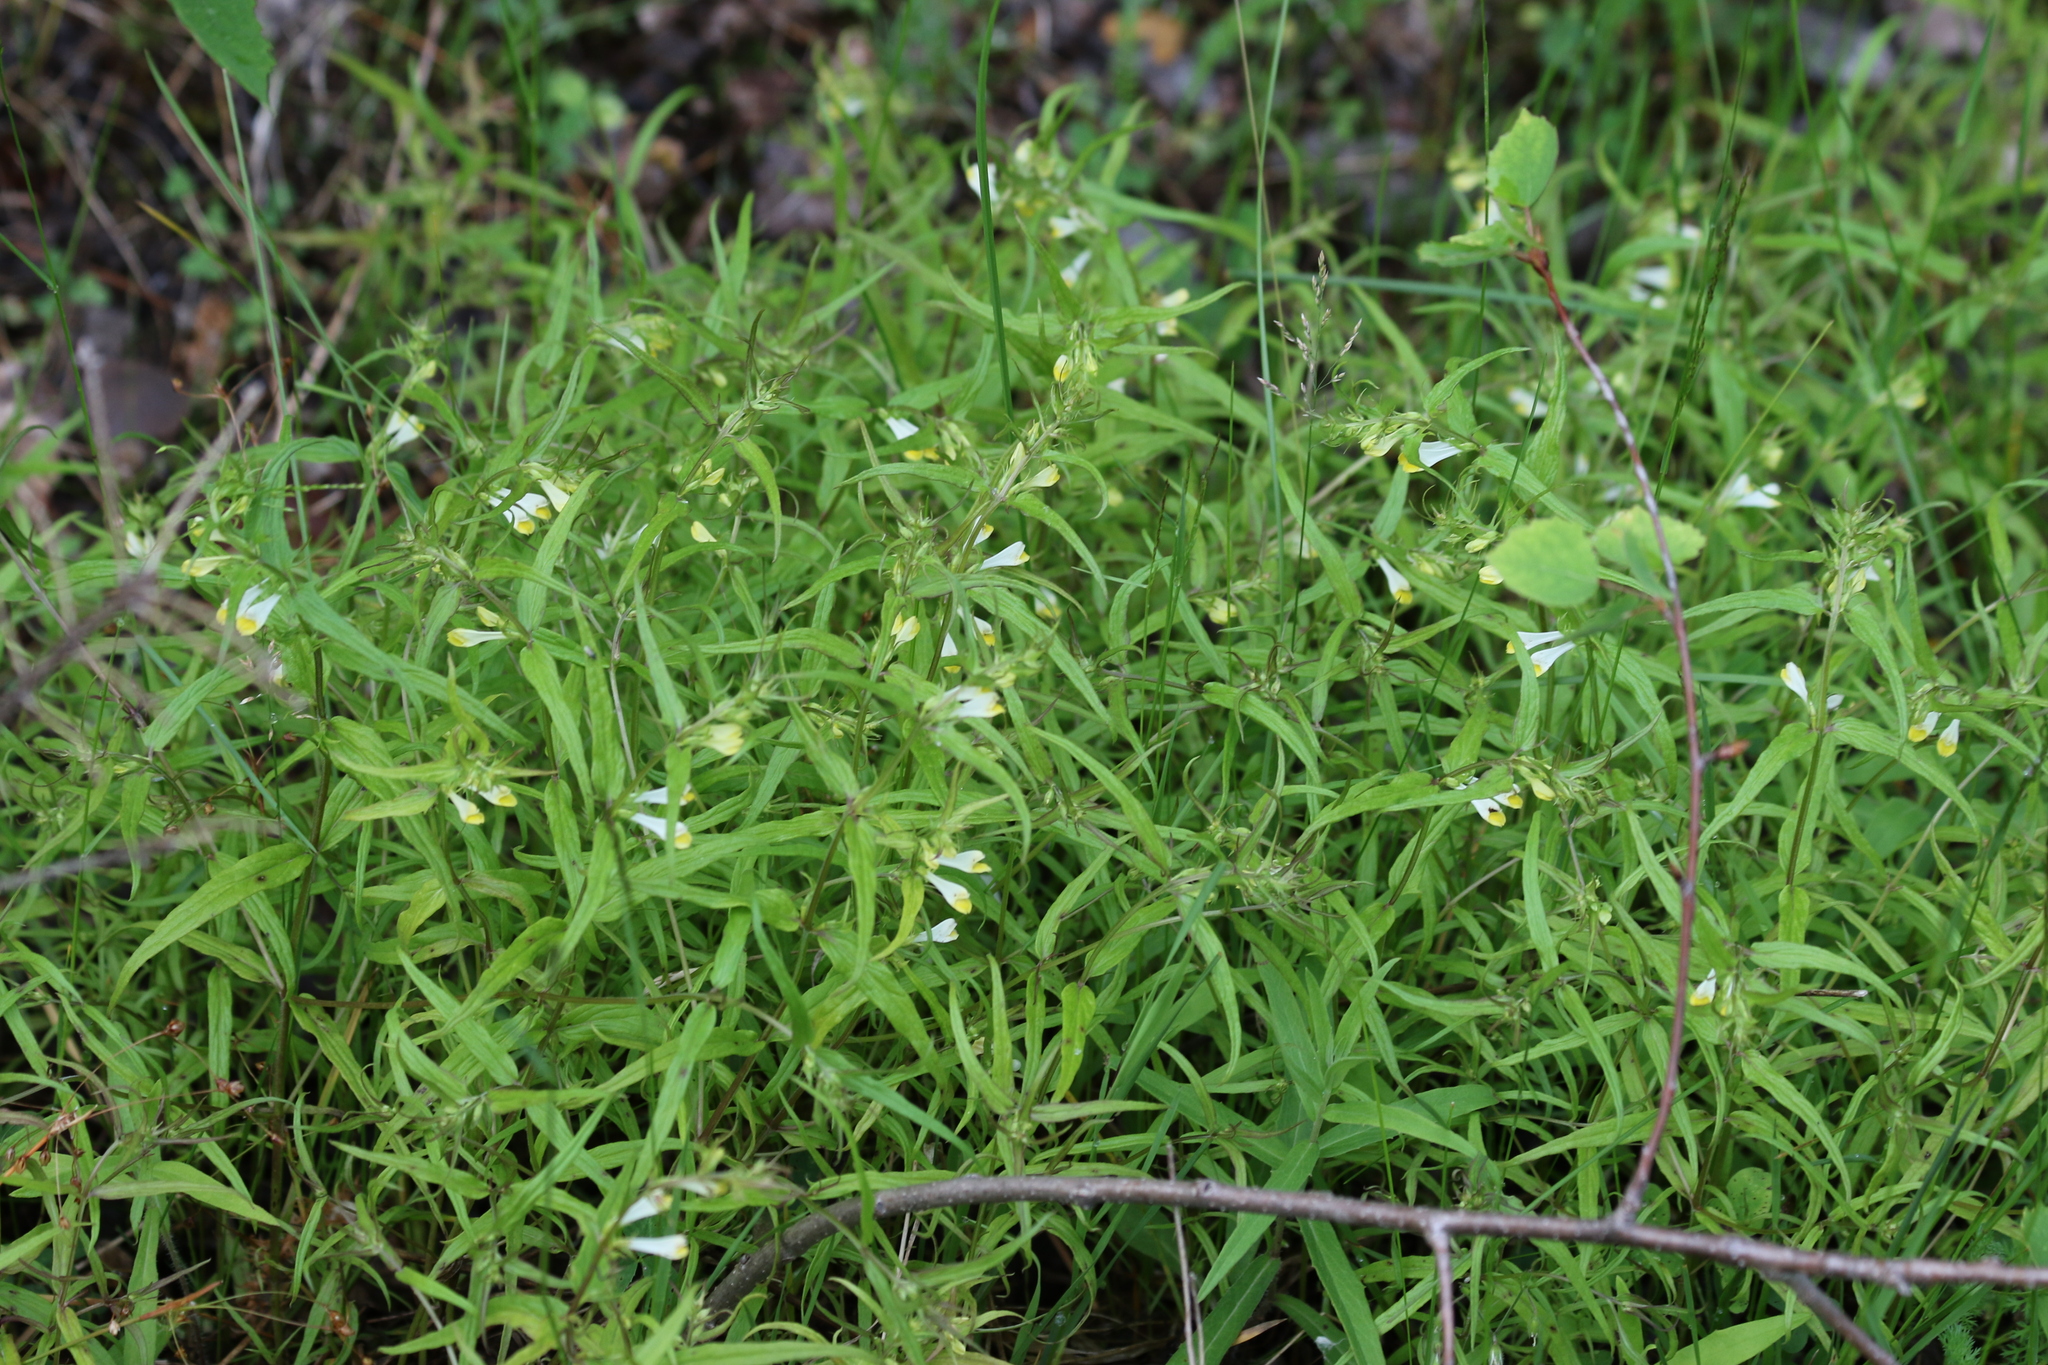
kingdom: Plantae
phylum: Tracheophyta
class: Magnoliopsida
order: Lamiales
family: Orobanchaceae
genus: Melampyrum
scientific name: Melampyrum pratense
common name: Common cow-wheat
